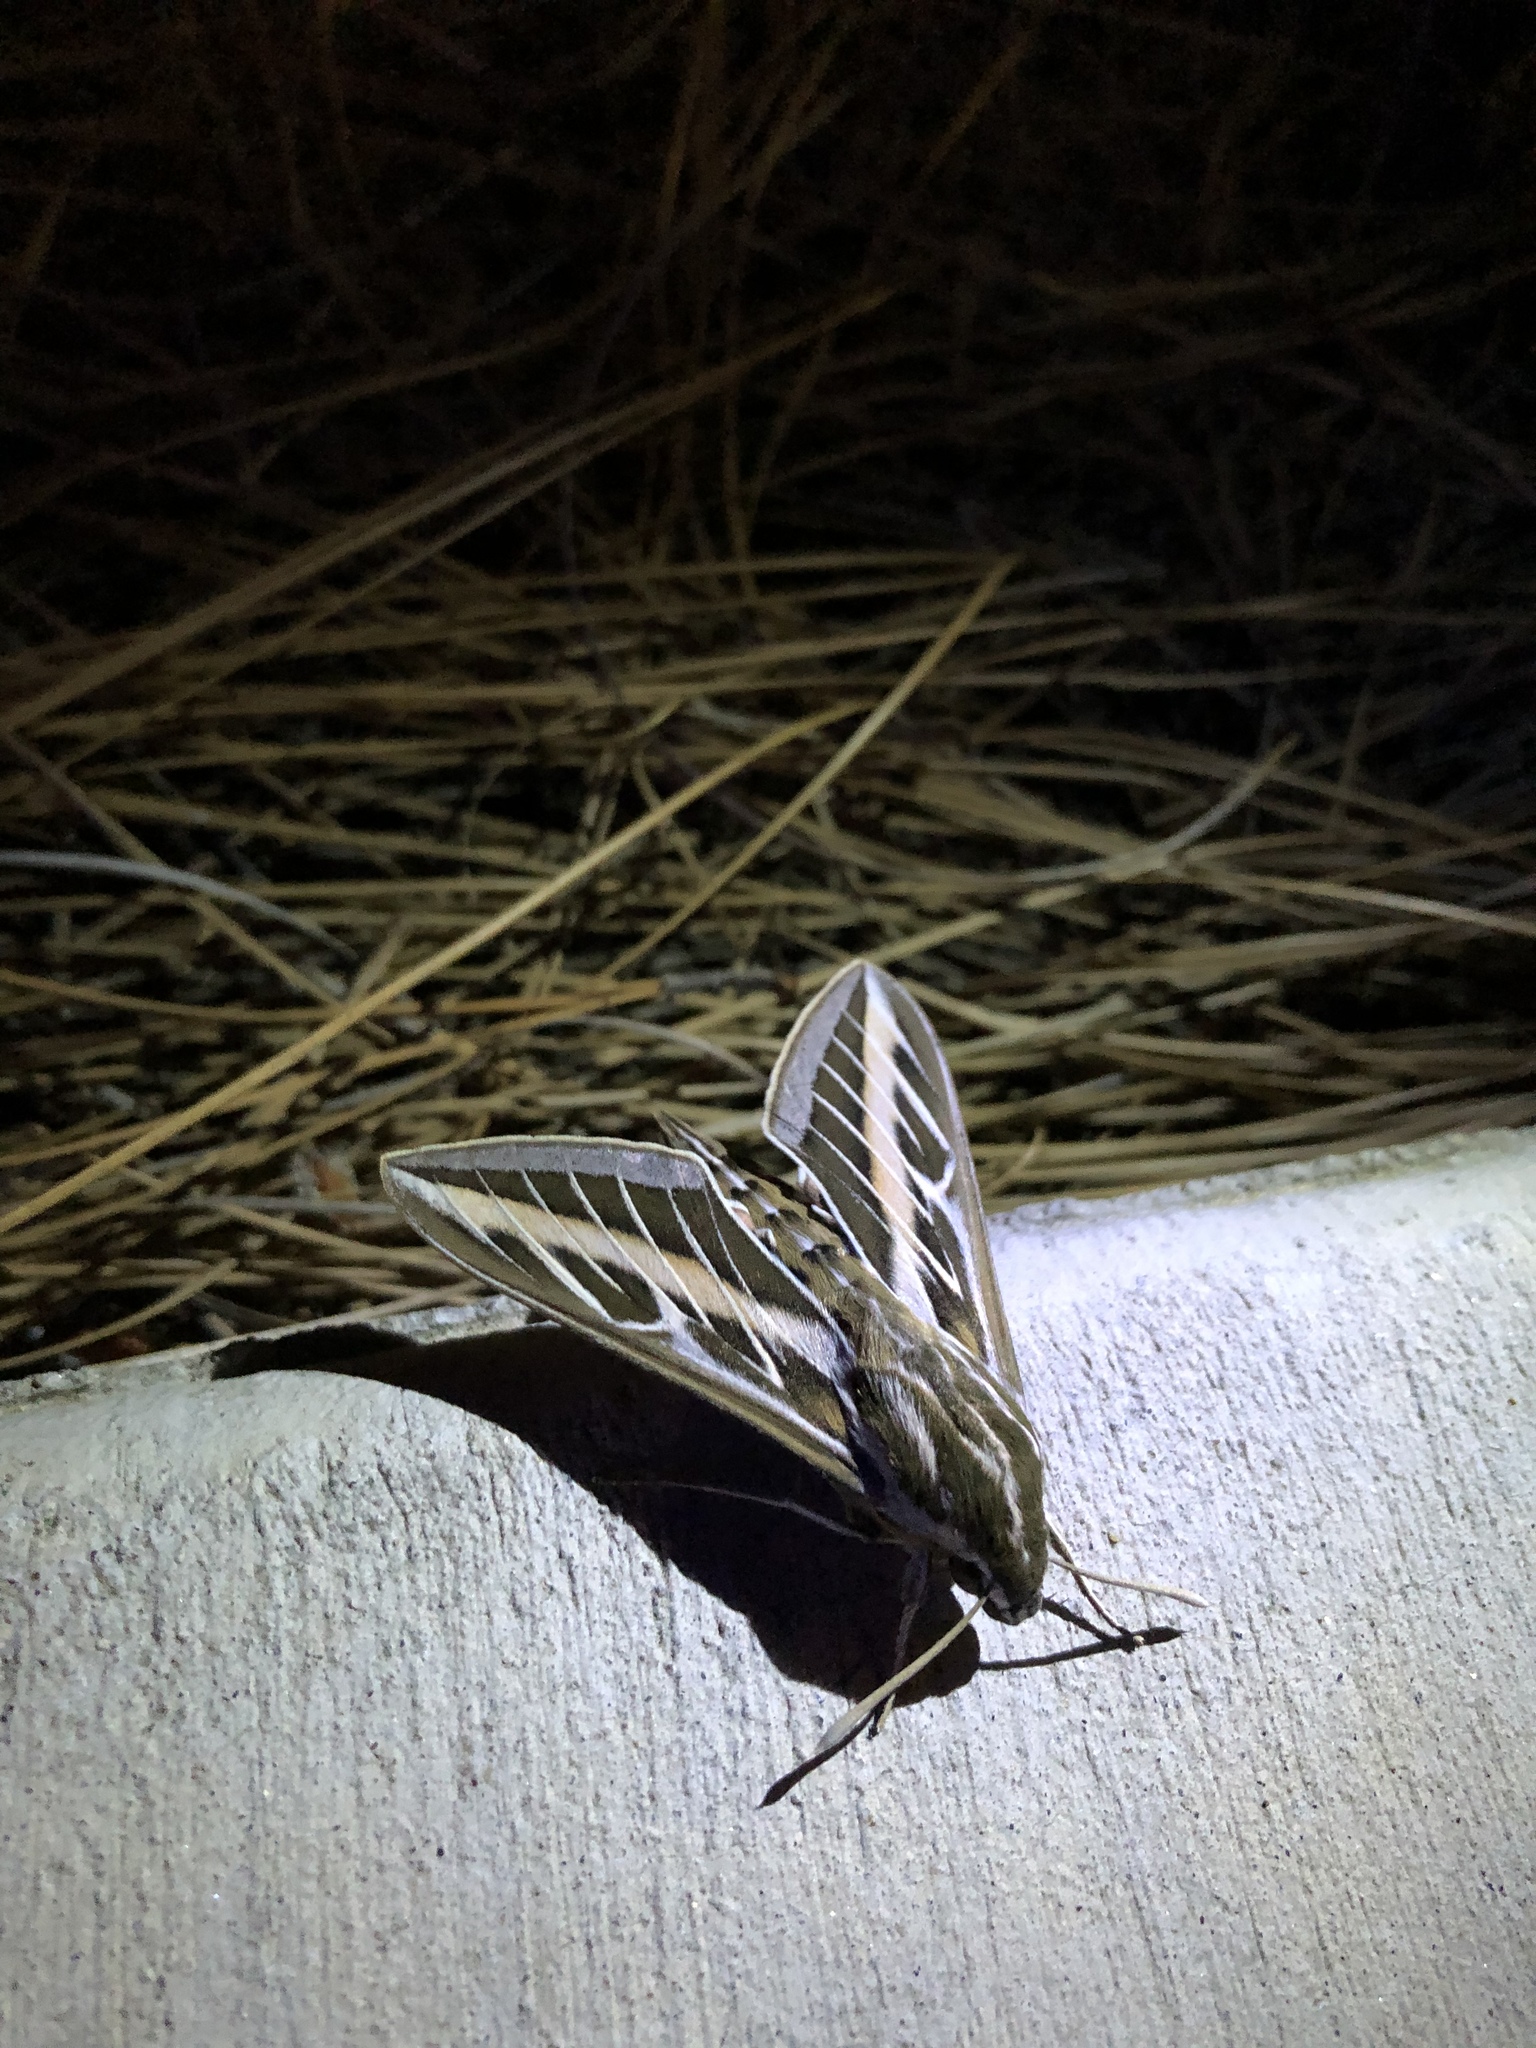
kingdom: Animalia
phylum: Arthropoda
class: Insecta
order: Lepidoptera
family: Sphingidae
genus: Hyles
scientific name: Hyles lineata
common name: White-lined sphinx
